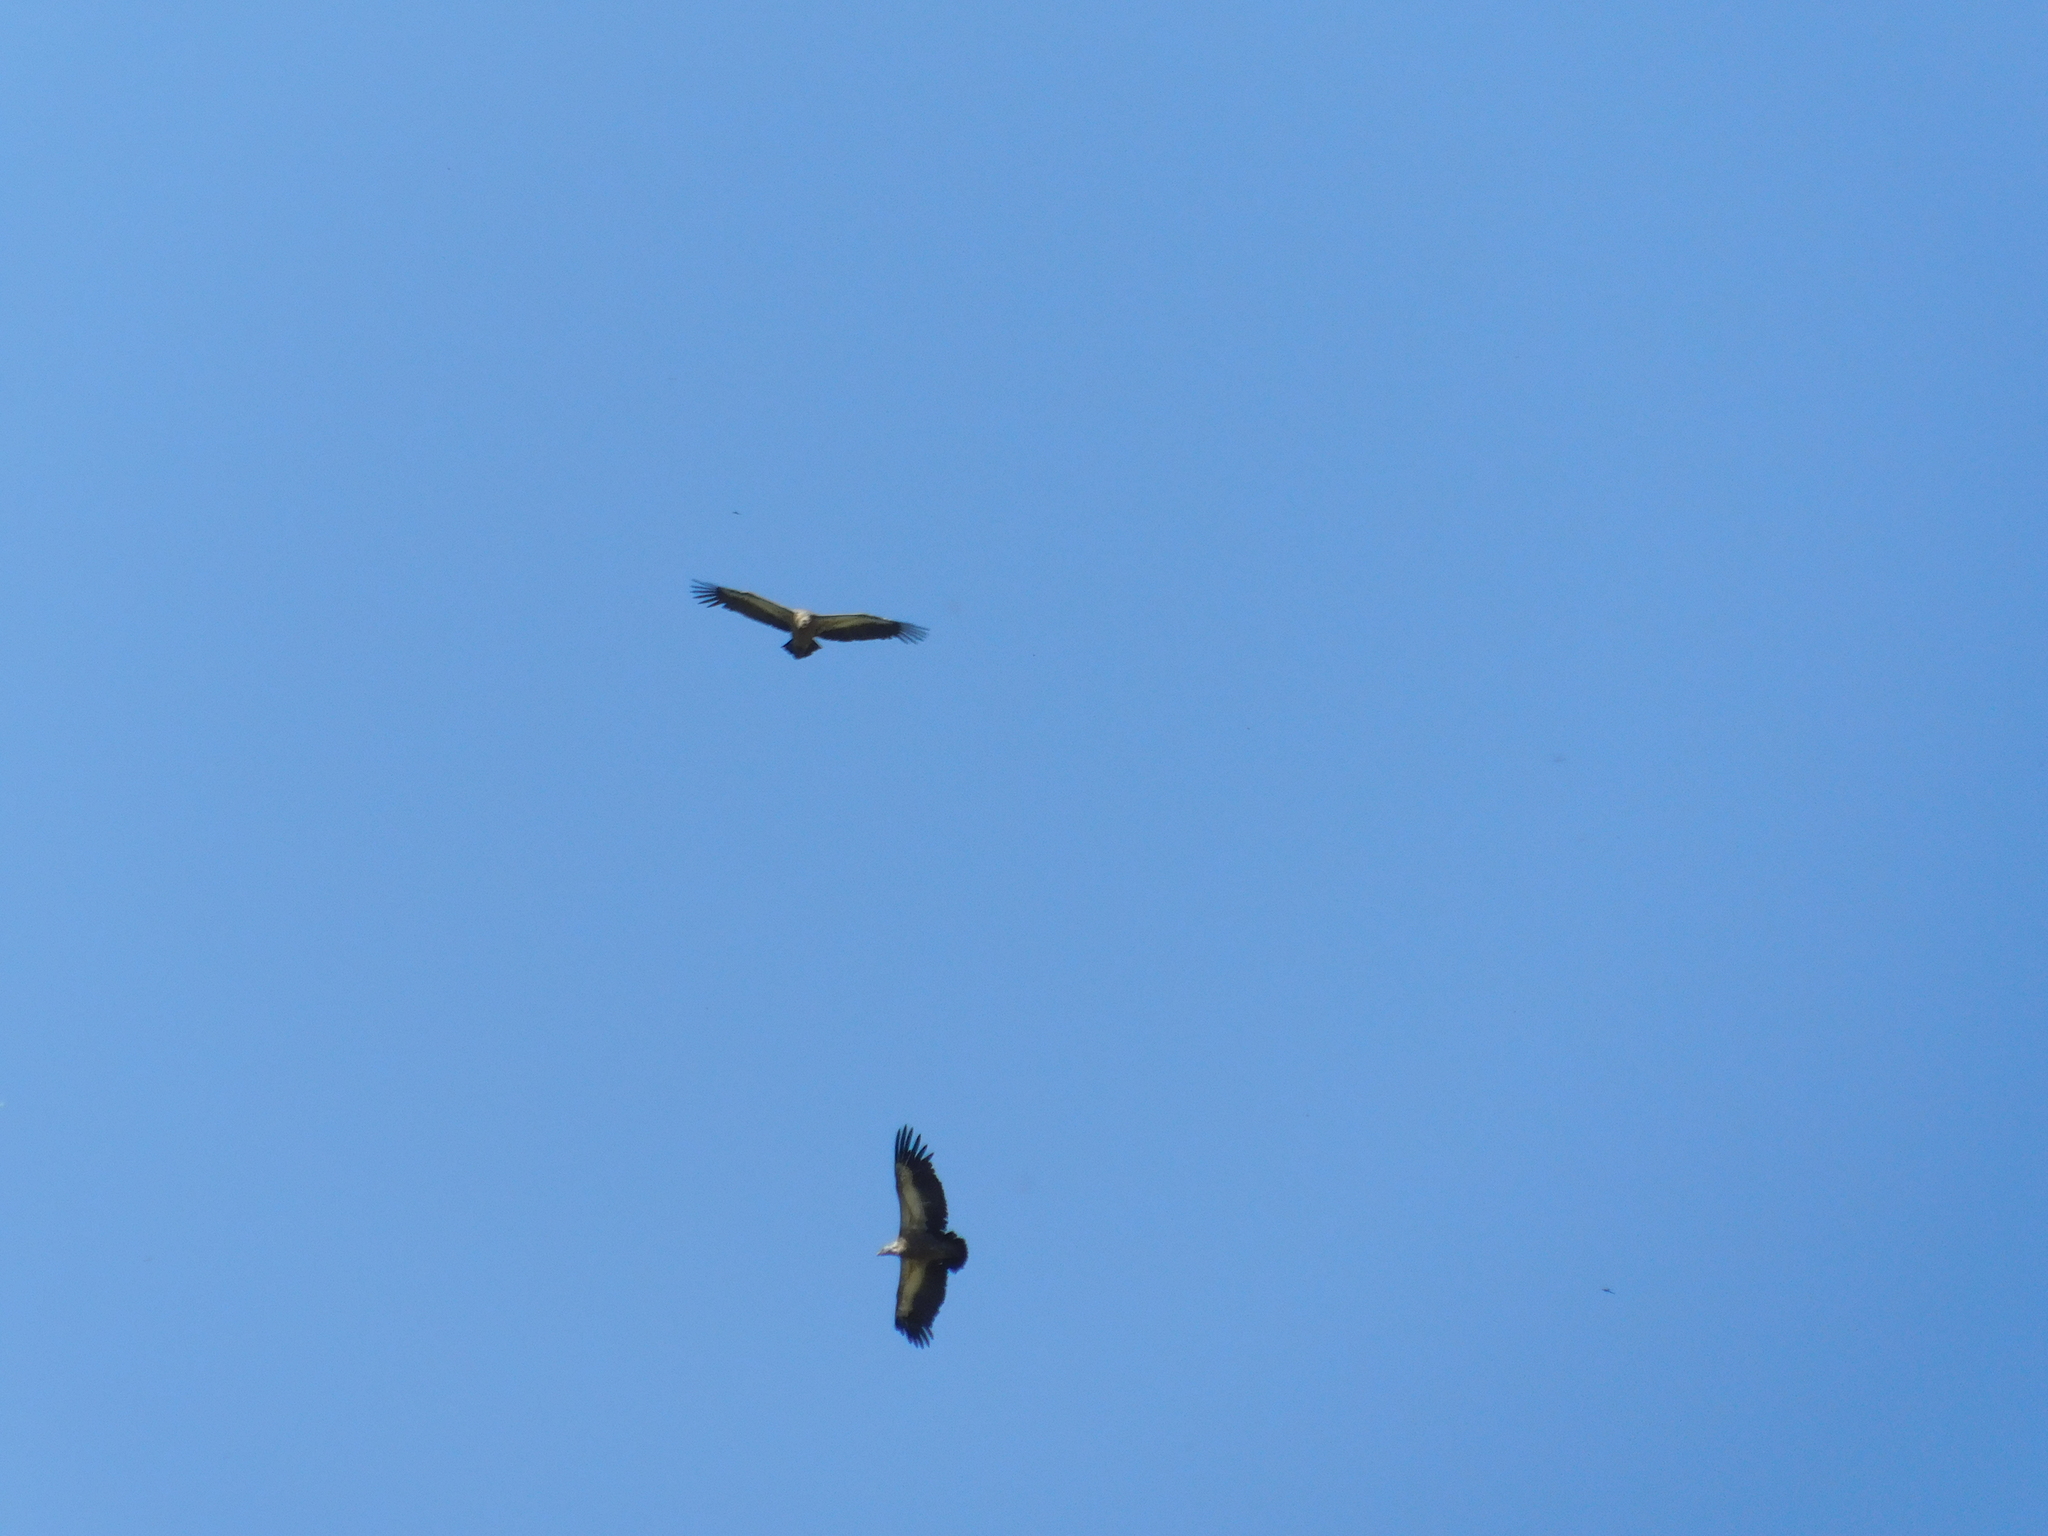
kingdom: Animalia
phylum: Chordata
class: Aves
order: Accipitriformes
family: Accipitridae
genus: Gyps
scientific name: Gyps fulvus
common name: Griffon vulture
